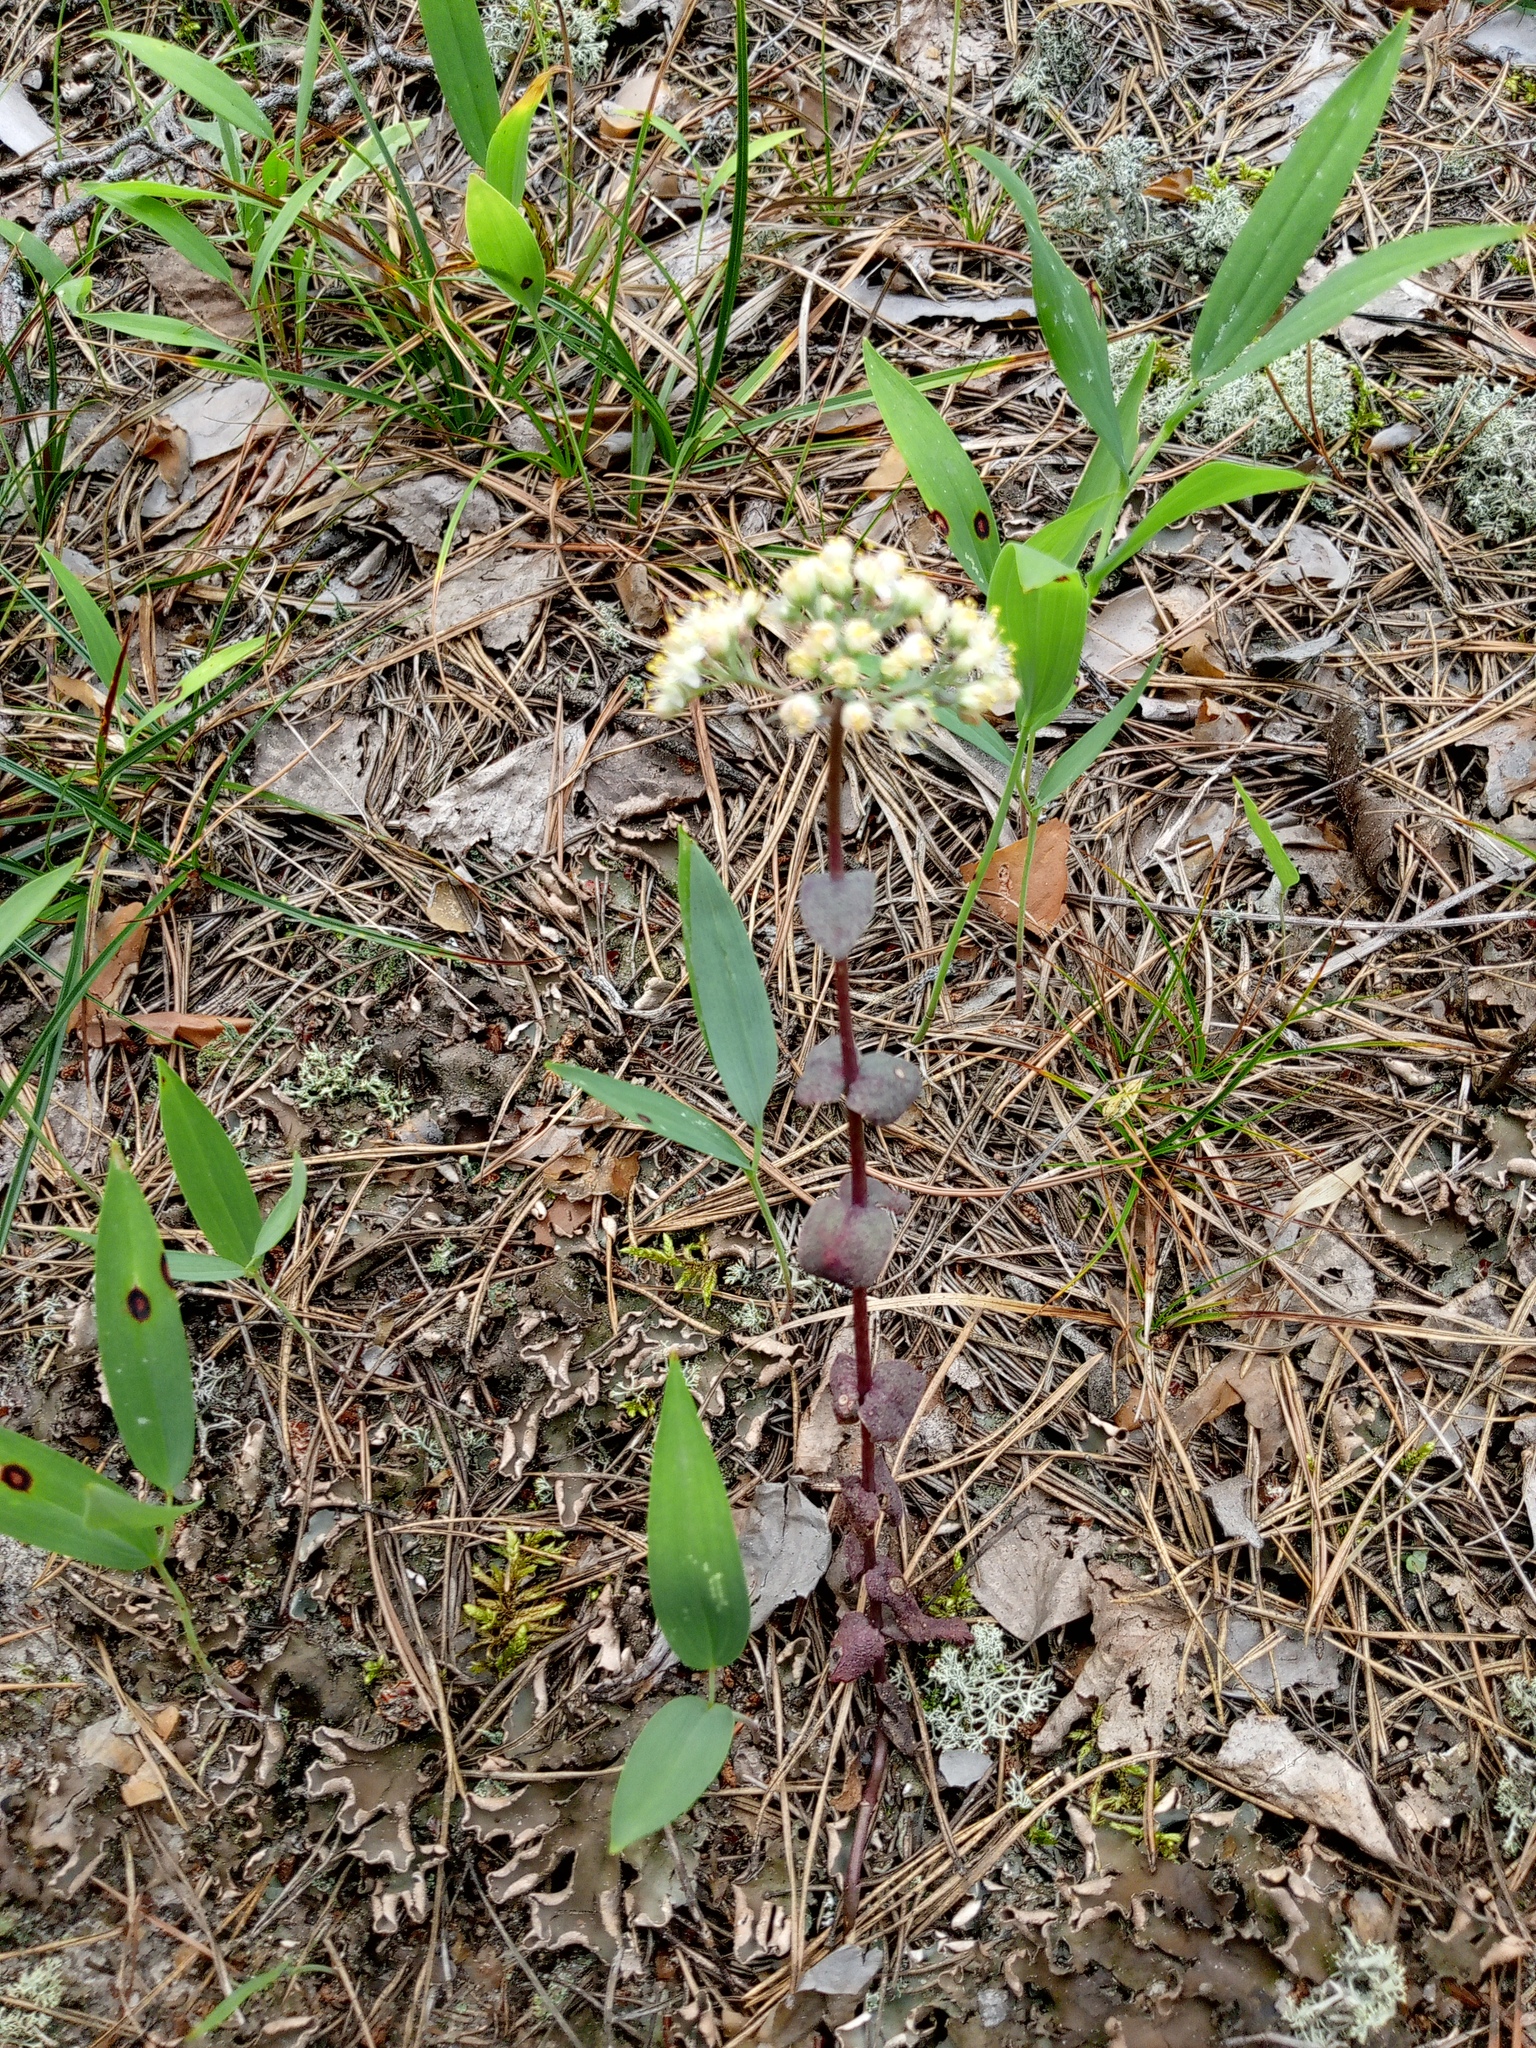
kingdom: Plantae
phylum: Tracheophyta
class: Magnoliopsida
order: Saxifragales
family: Crassulaceae
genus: Hylotelephium
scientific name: Hylotelephium maximum
